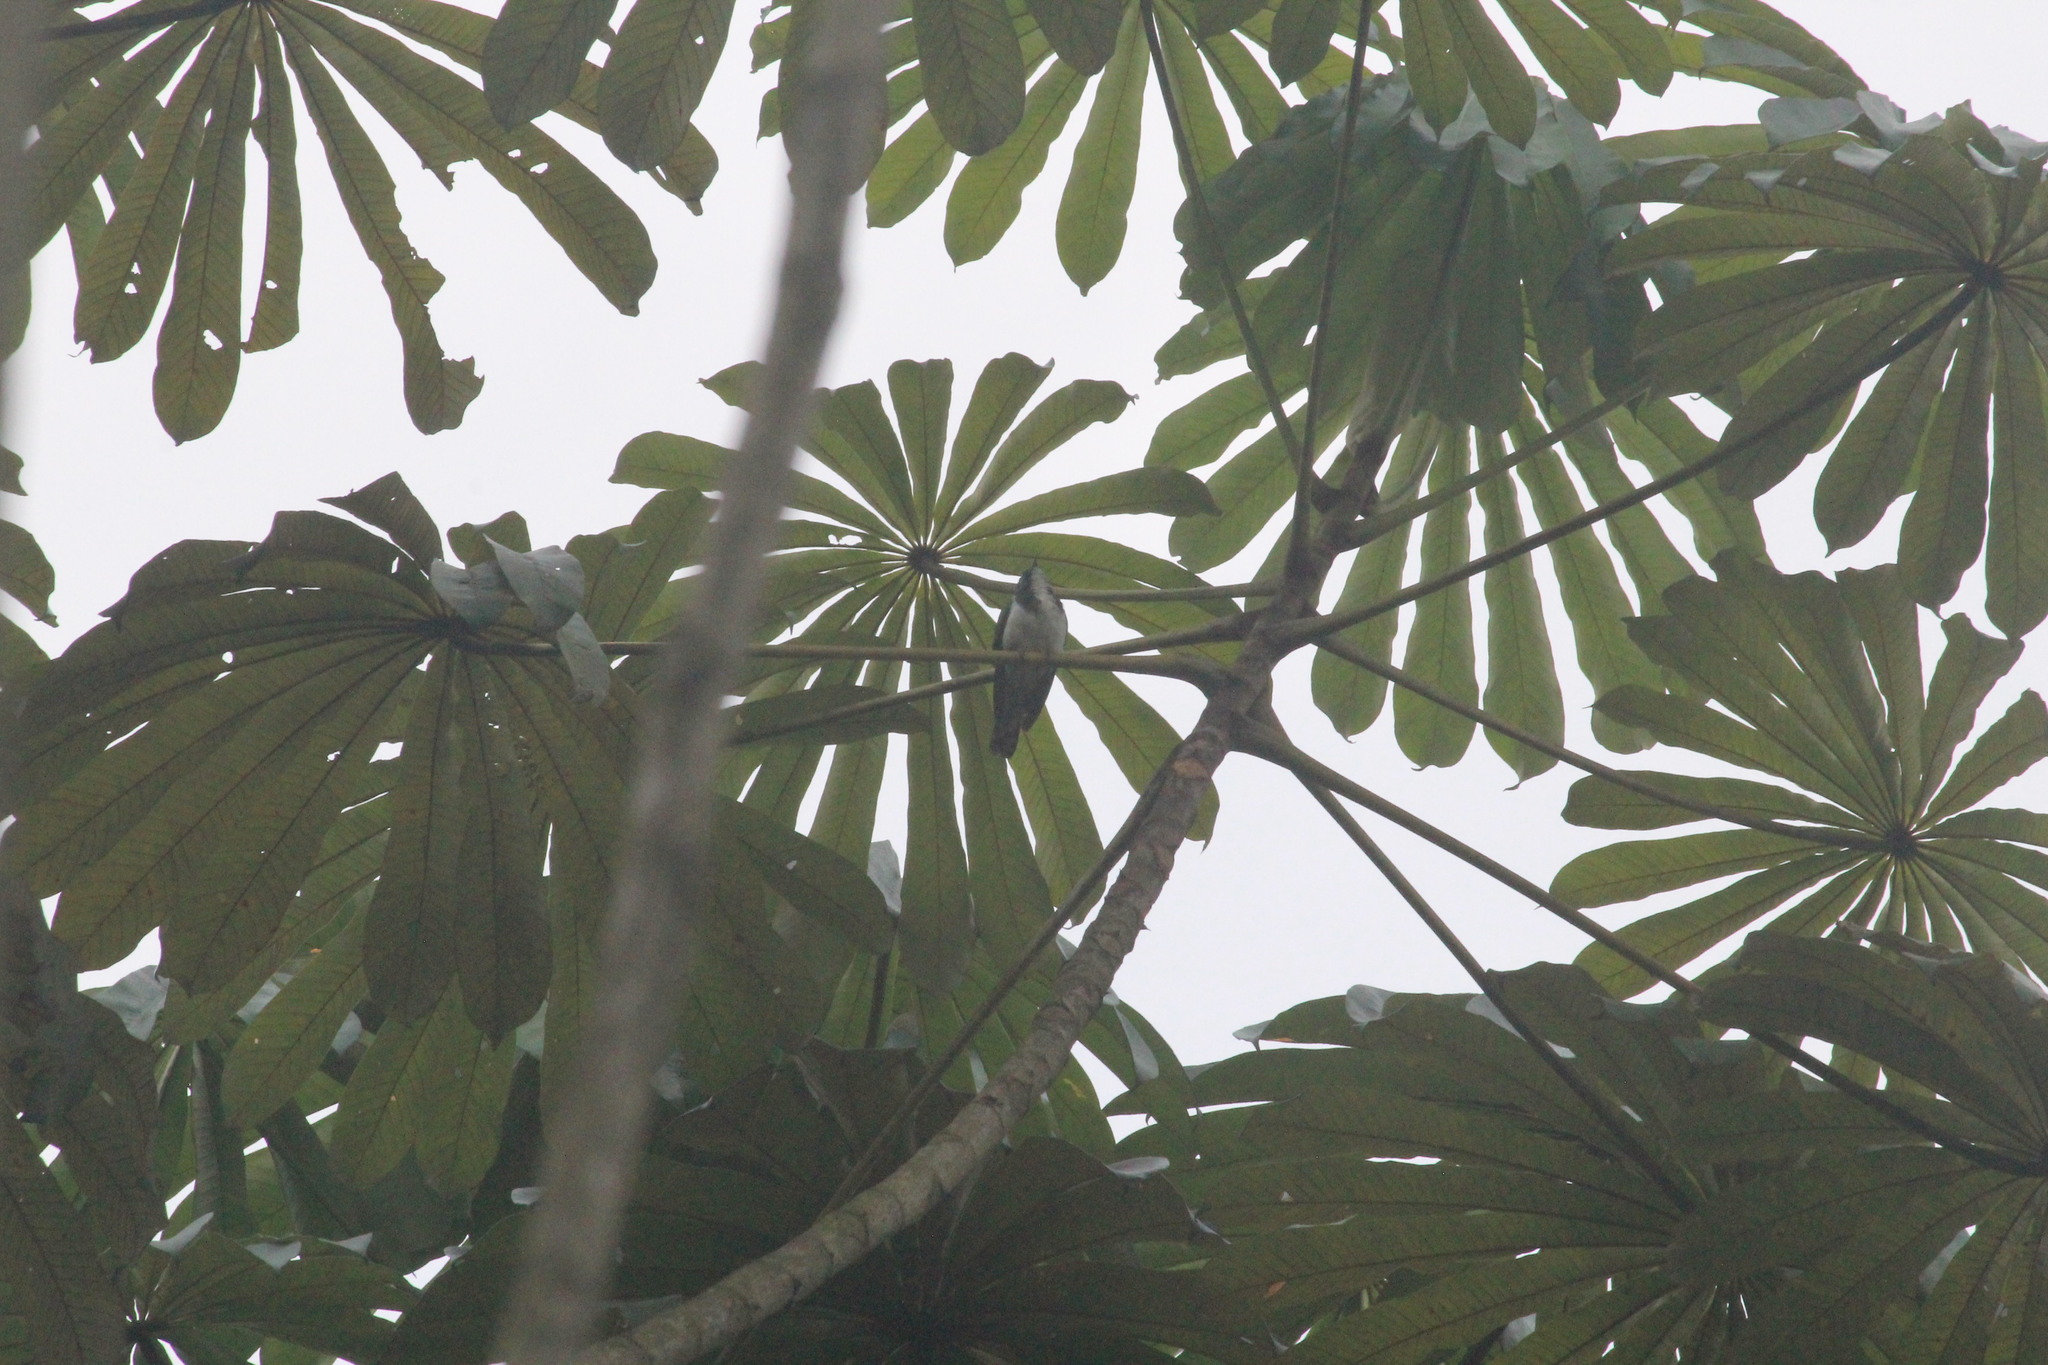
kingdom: Animalia
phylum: Chordata
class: Aves
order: Cuculiformes
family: Cuculidae
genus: Chrysococcyx
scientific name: Chrysococcyx klaas
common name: Klaas's cuckoo
